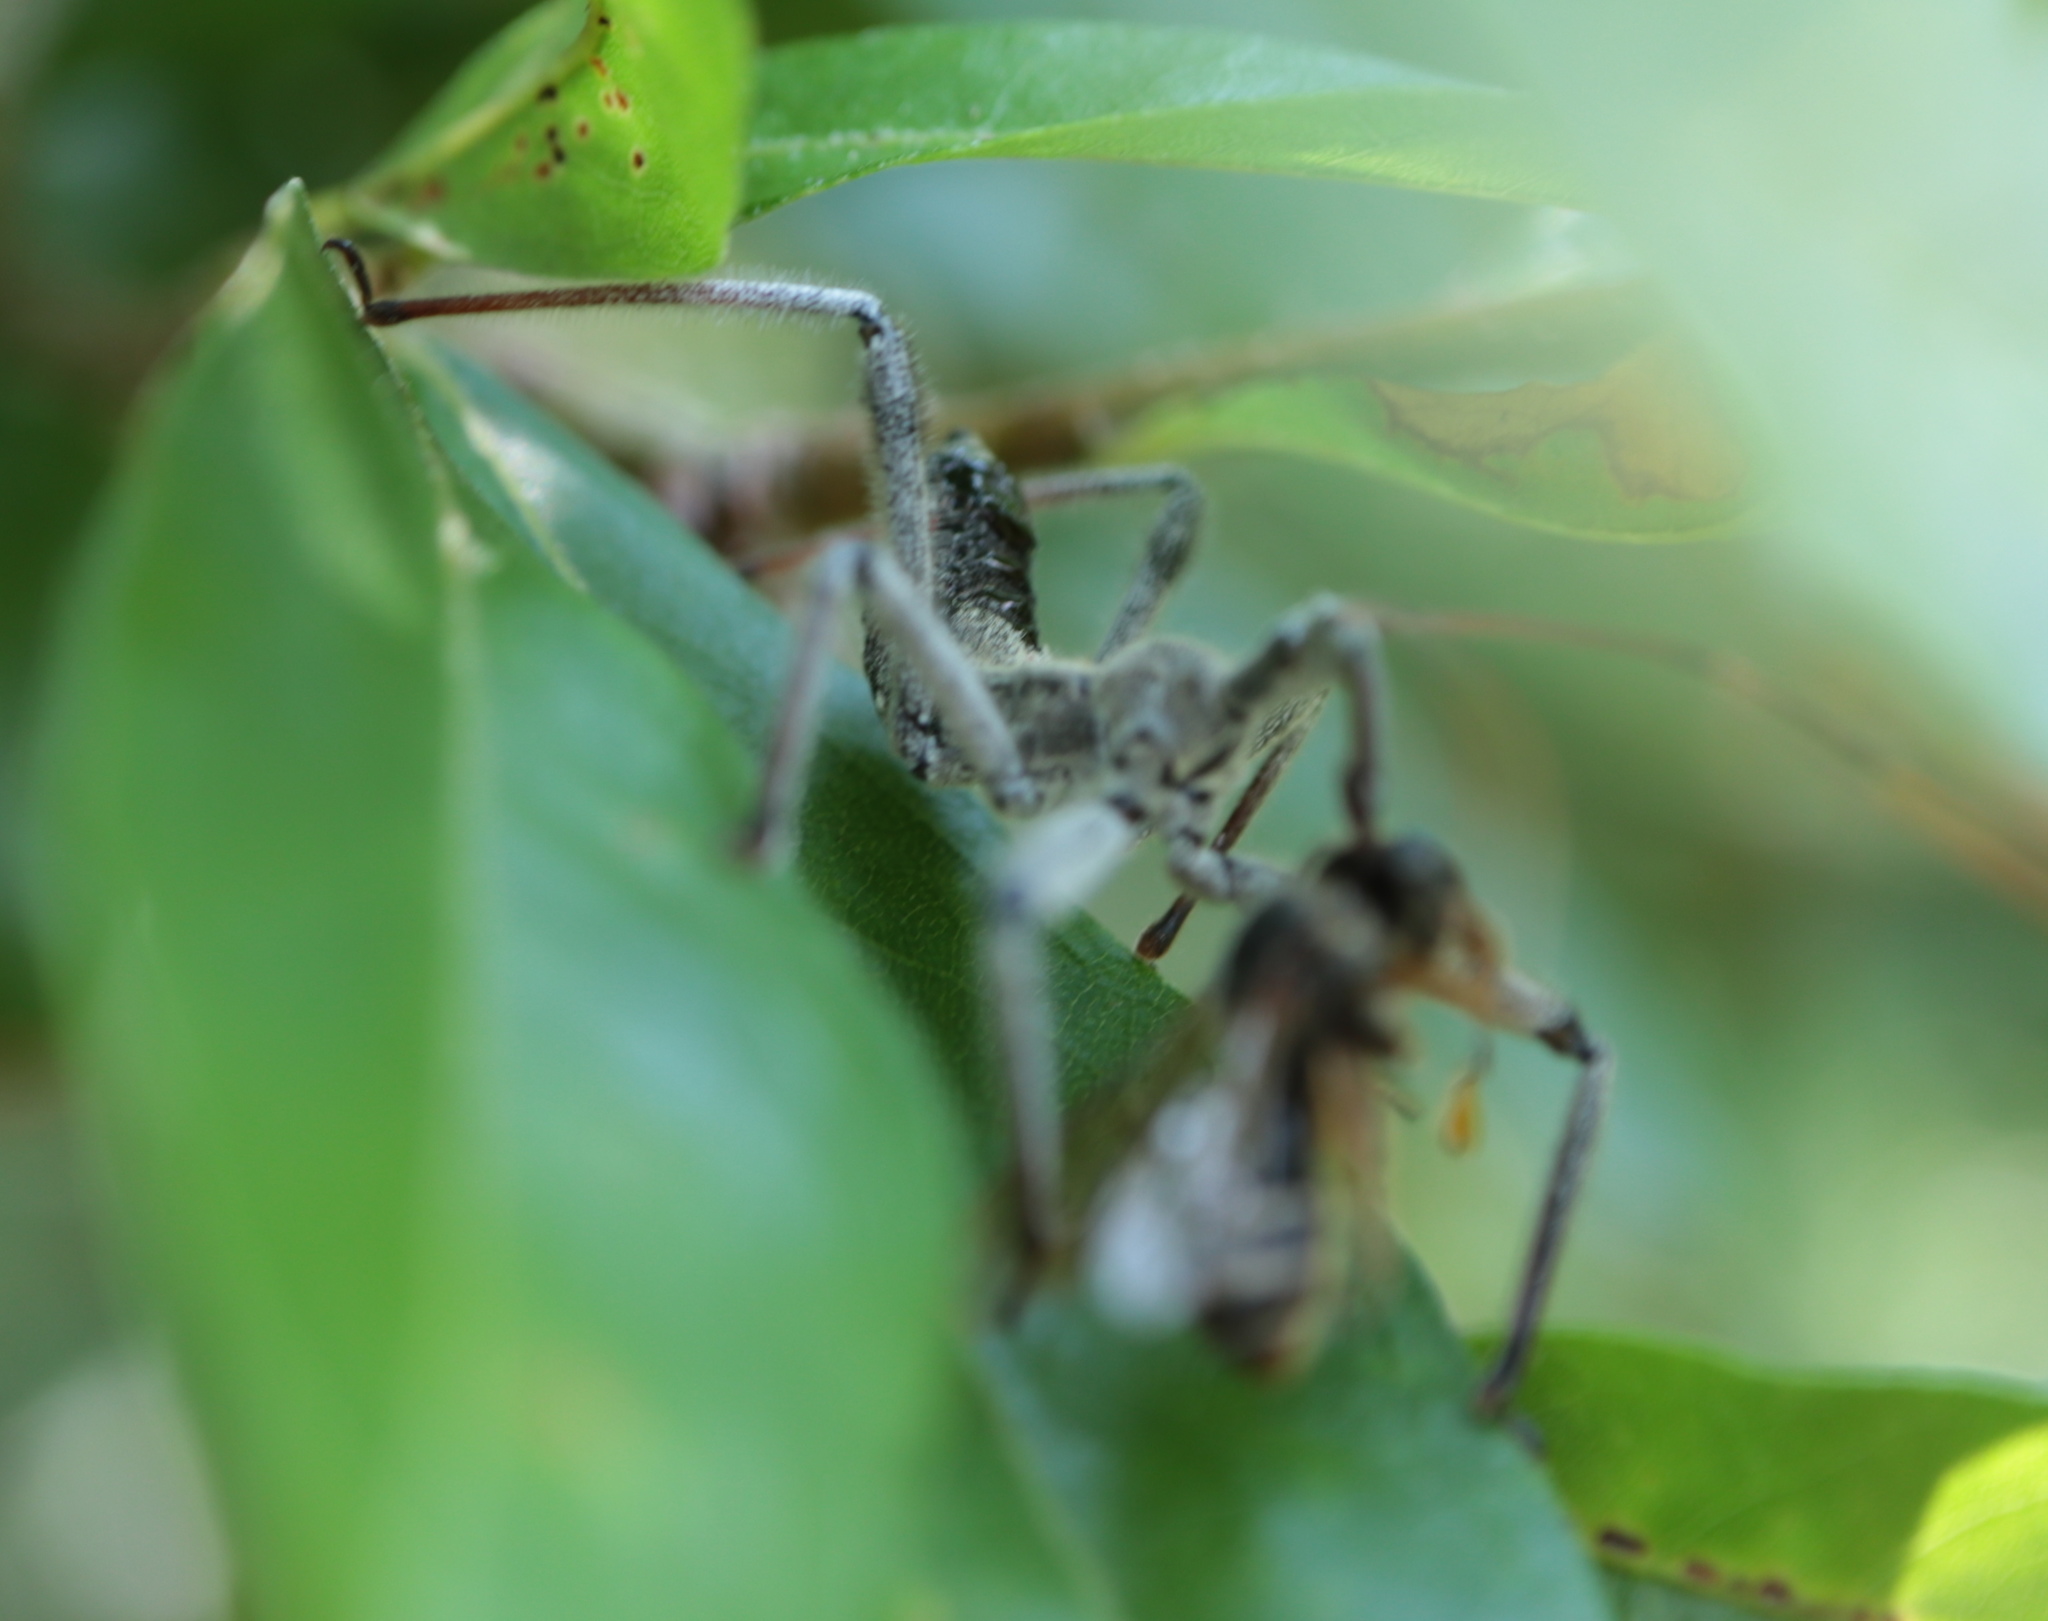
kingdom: Animalia
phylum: Arthropoda
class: Insecta
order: Hemiptera
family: Reduviidae
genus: Arilus
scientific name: Arilus cristatus
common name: North american wheel bug
